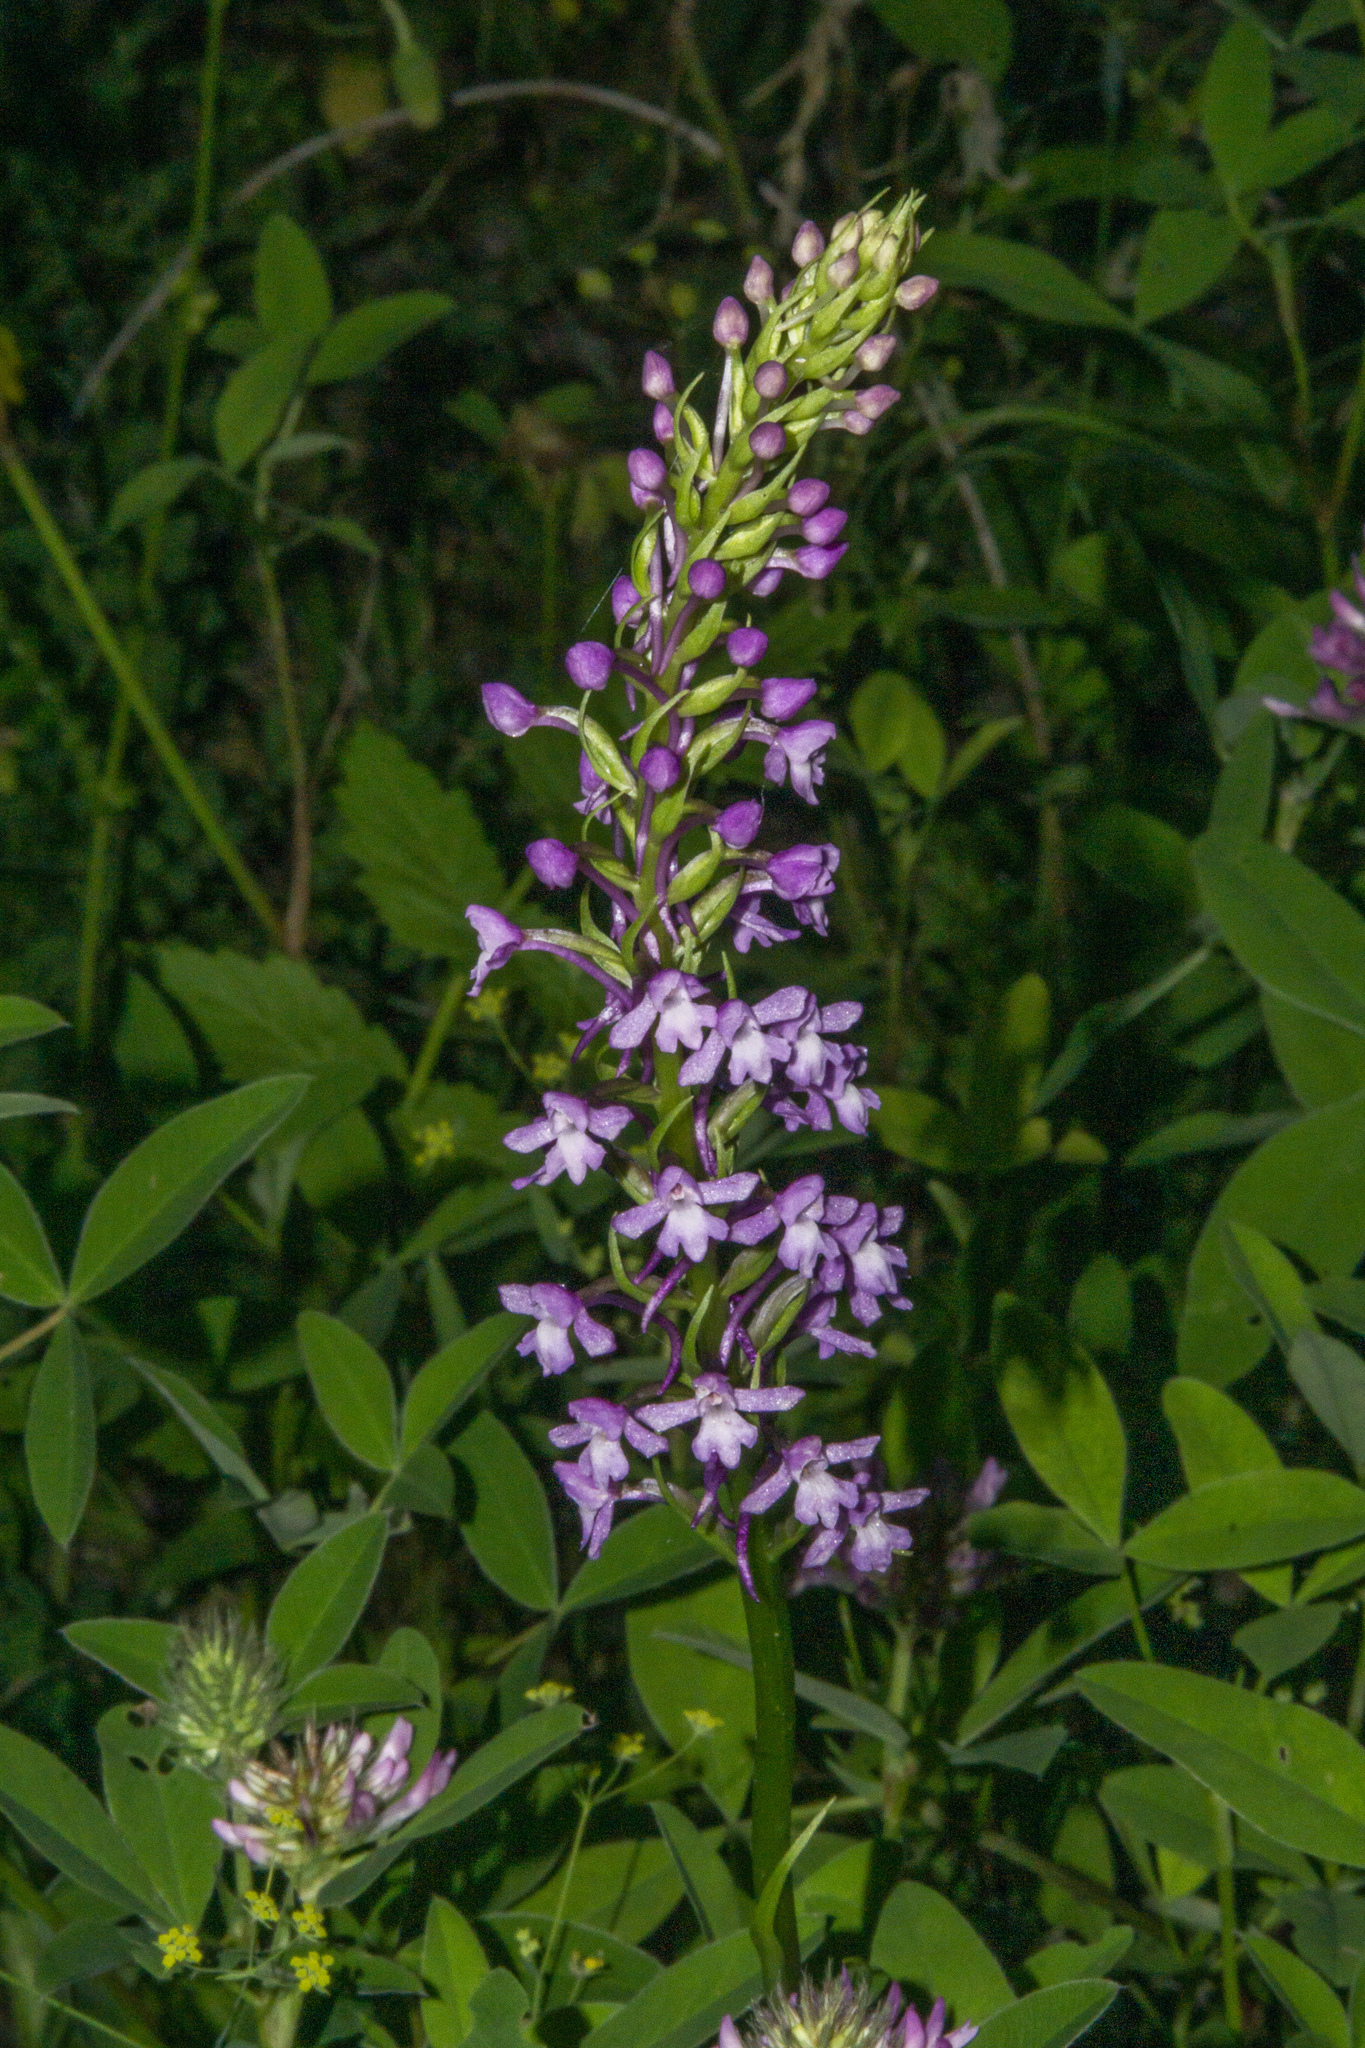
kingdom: Plantae
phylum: Tracheophyta
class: Liliopsida
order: Asparagales
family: Orchidaceae
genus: Gymnadenia
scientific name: Gymnadenia conopsea
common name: Fragrant orchid
